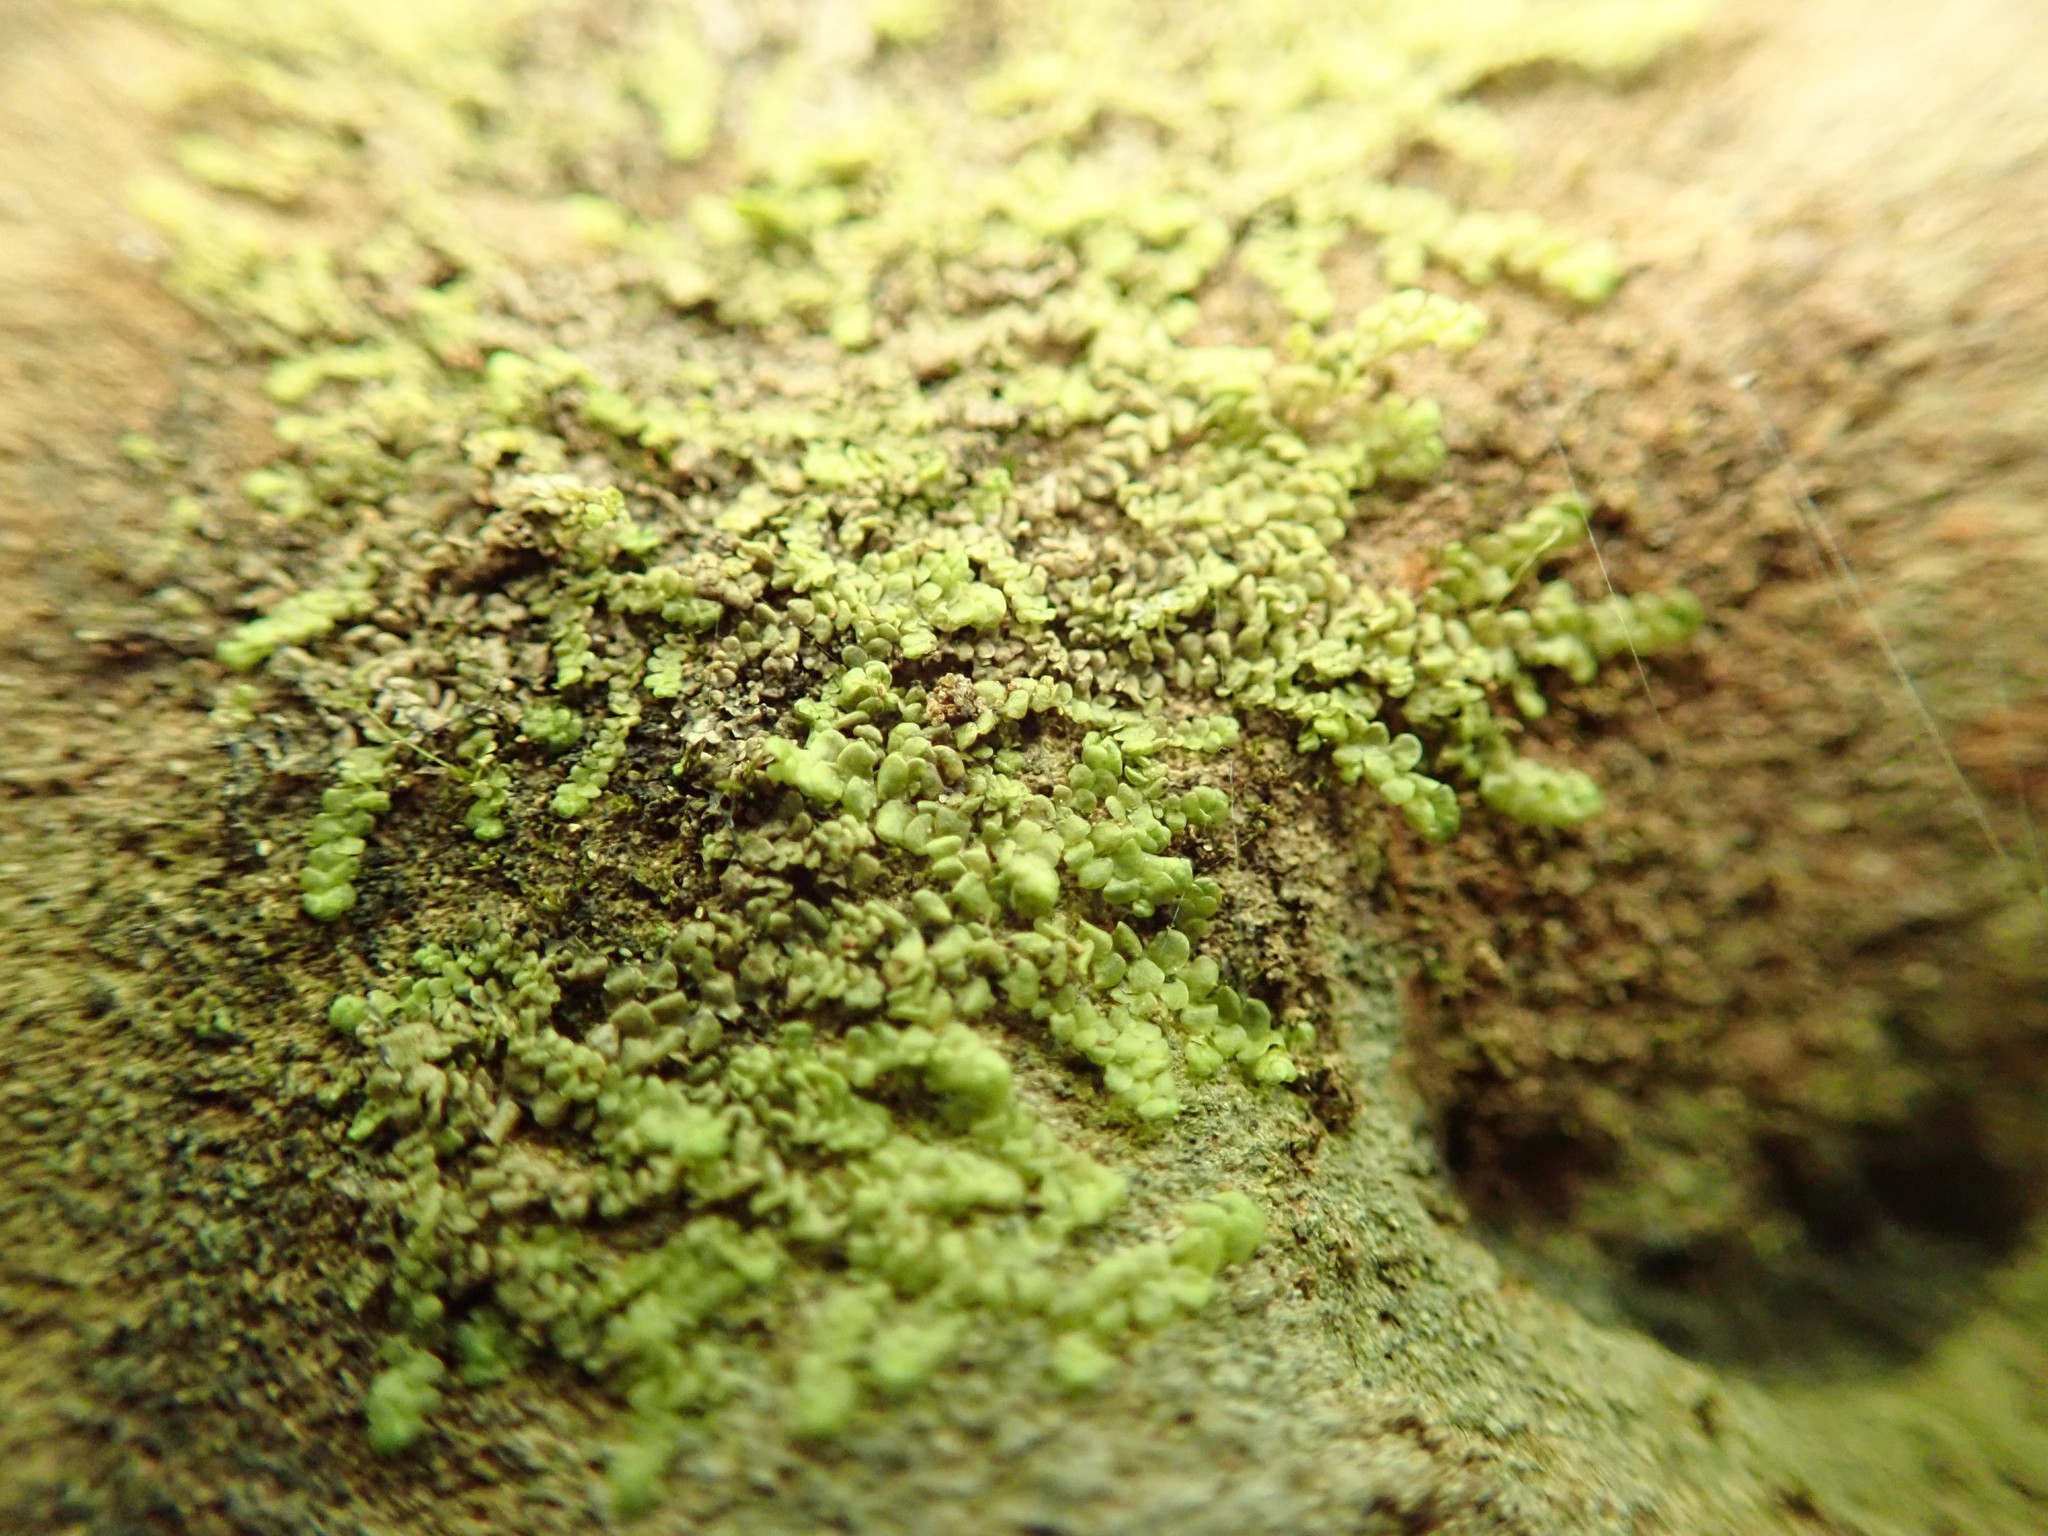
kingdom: Plantae
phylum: Marchantiophyta
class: Jungermanniopsida
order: Porellales
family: Radulaceae
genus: Radula
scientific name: Radula complanata
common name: Flat-leaved scalewort
